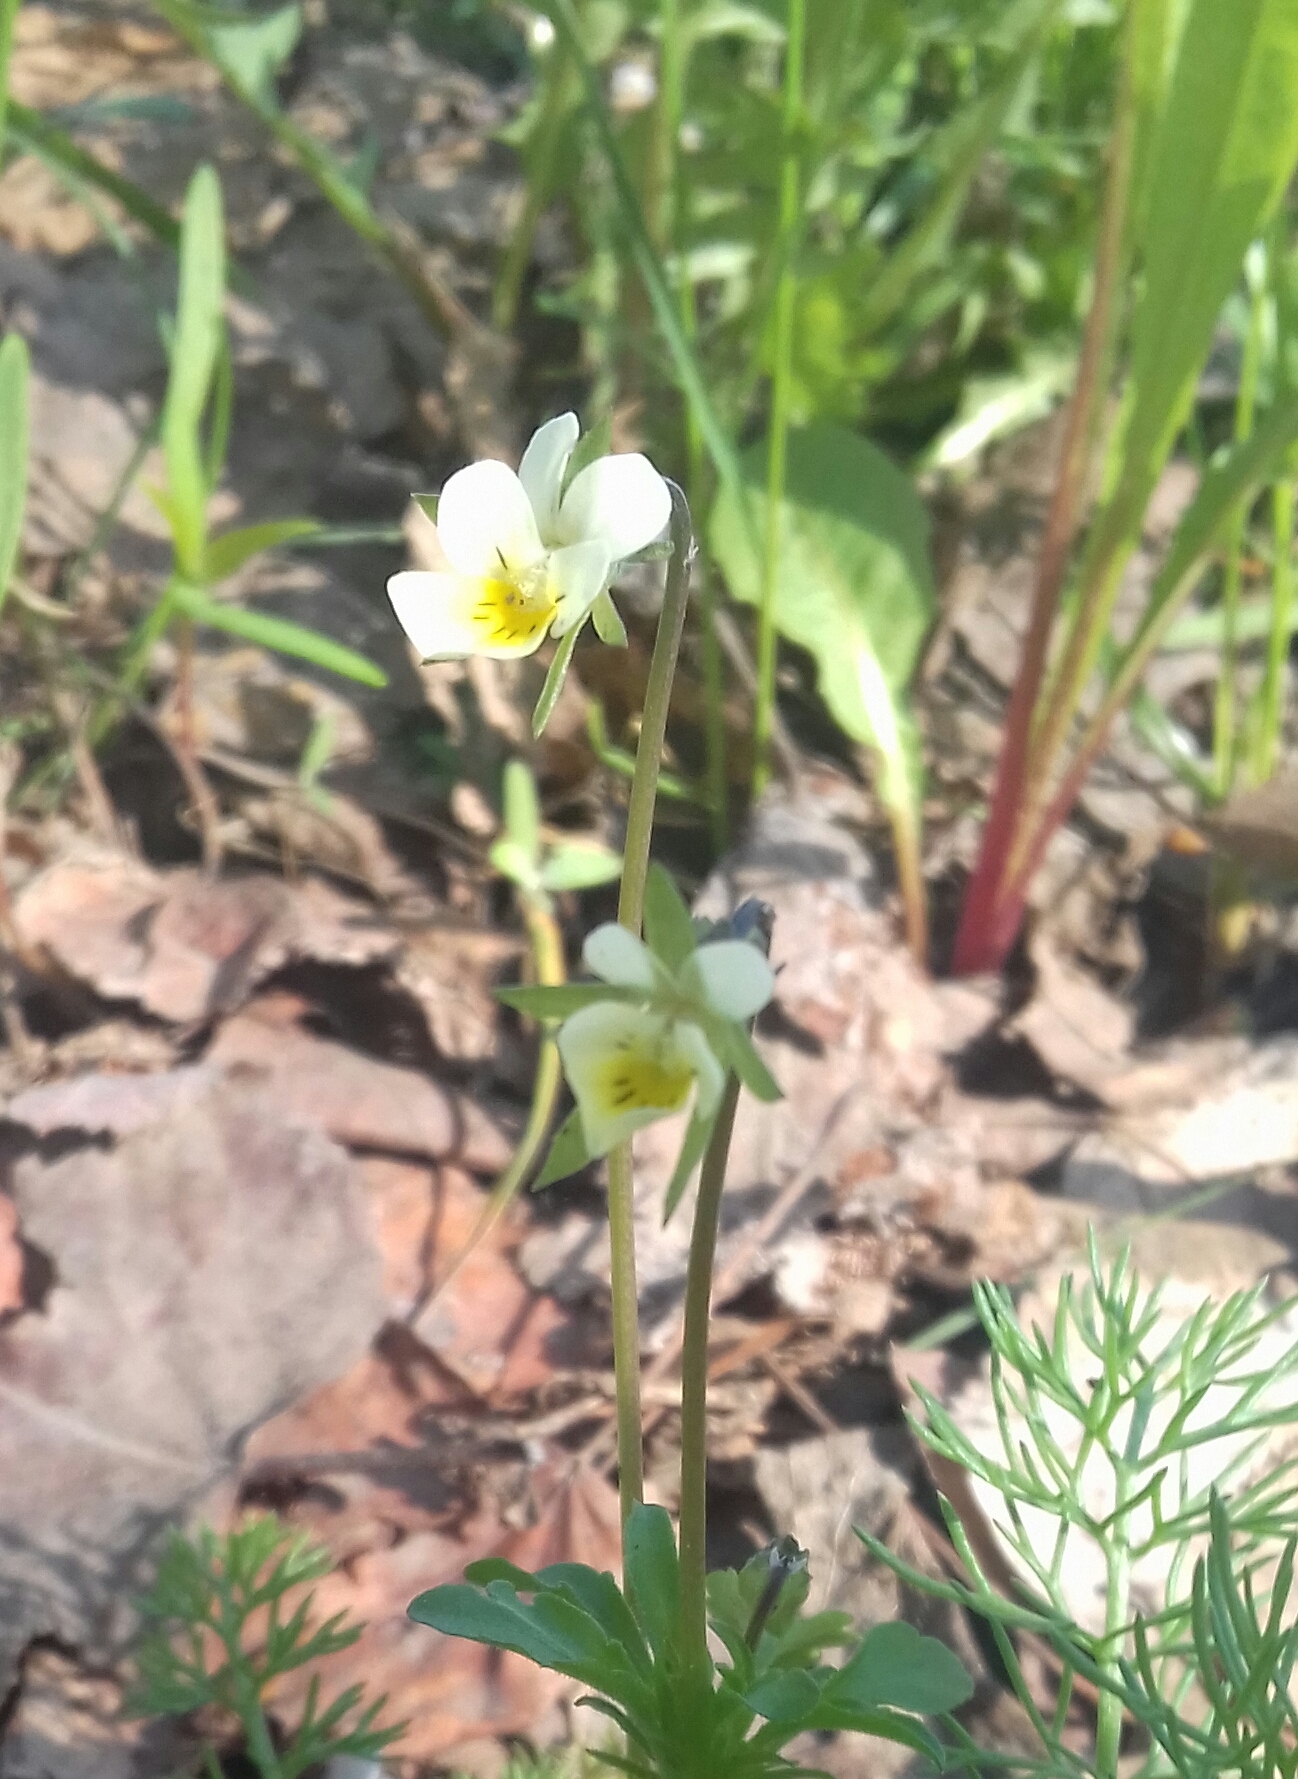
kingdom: Plantae
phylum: Tracheophyta
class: Magnoliopsida
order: Malpighiales
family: Violaceae
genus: Viola
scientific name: Viola arvensis
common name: Field pansy
